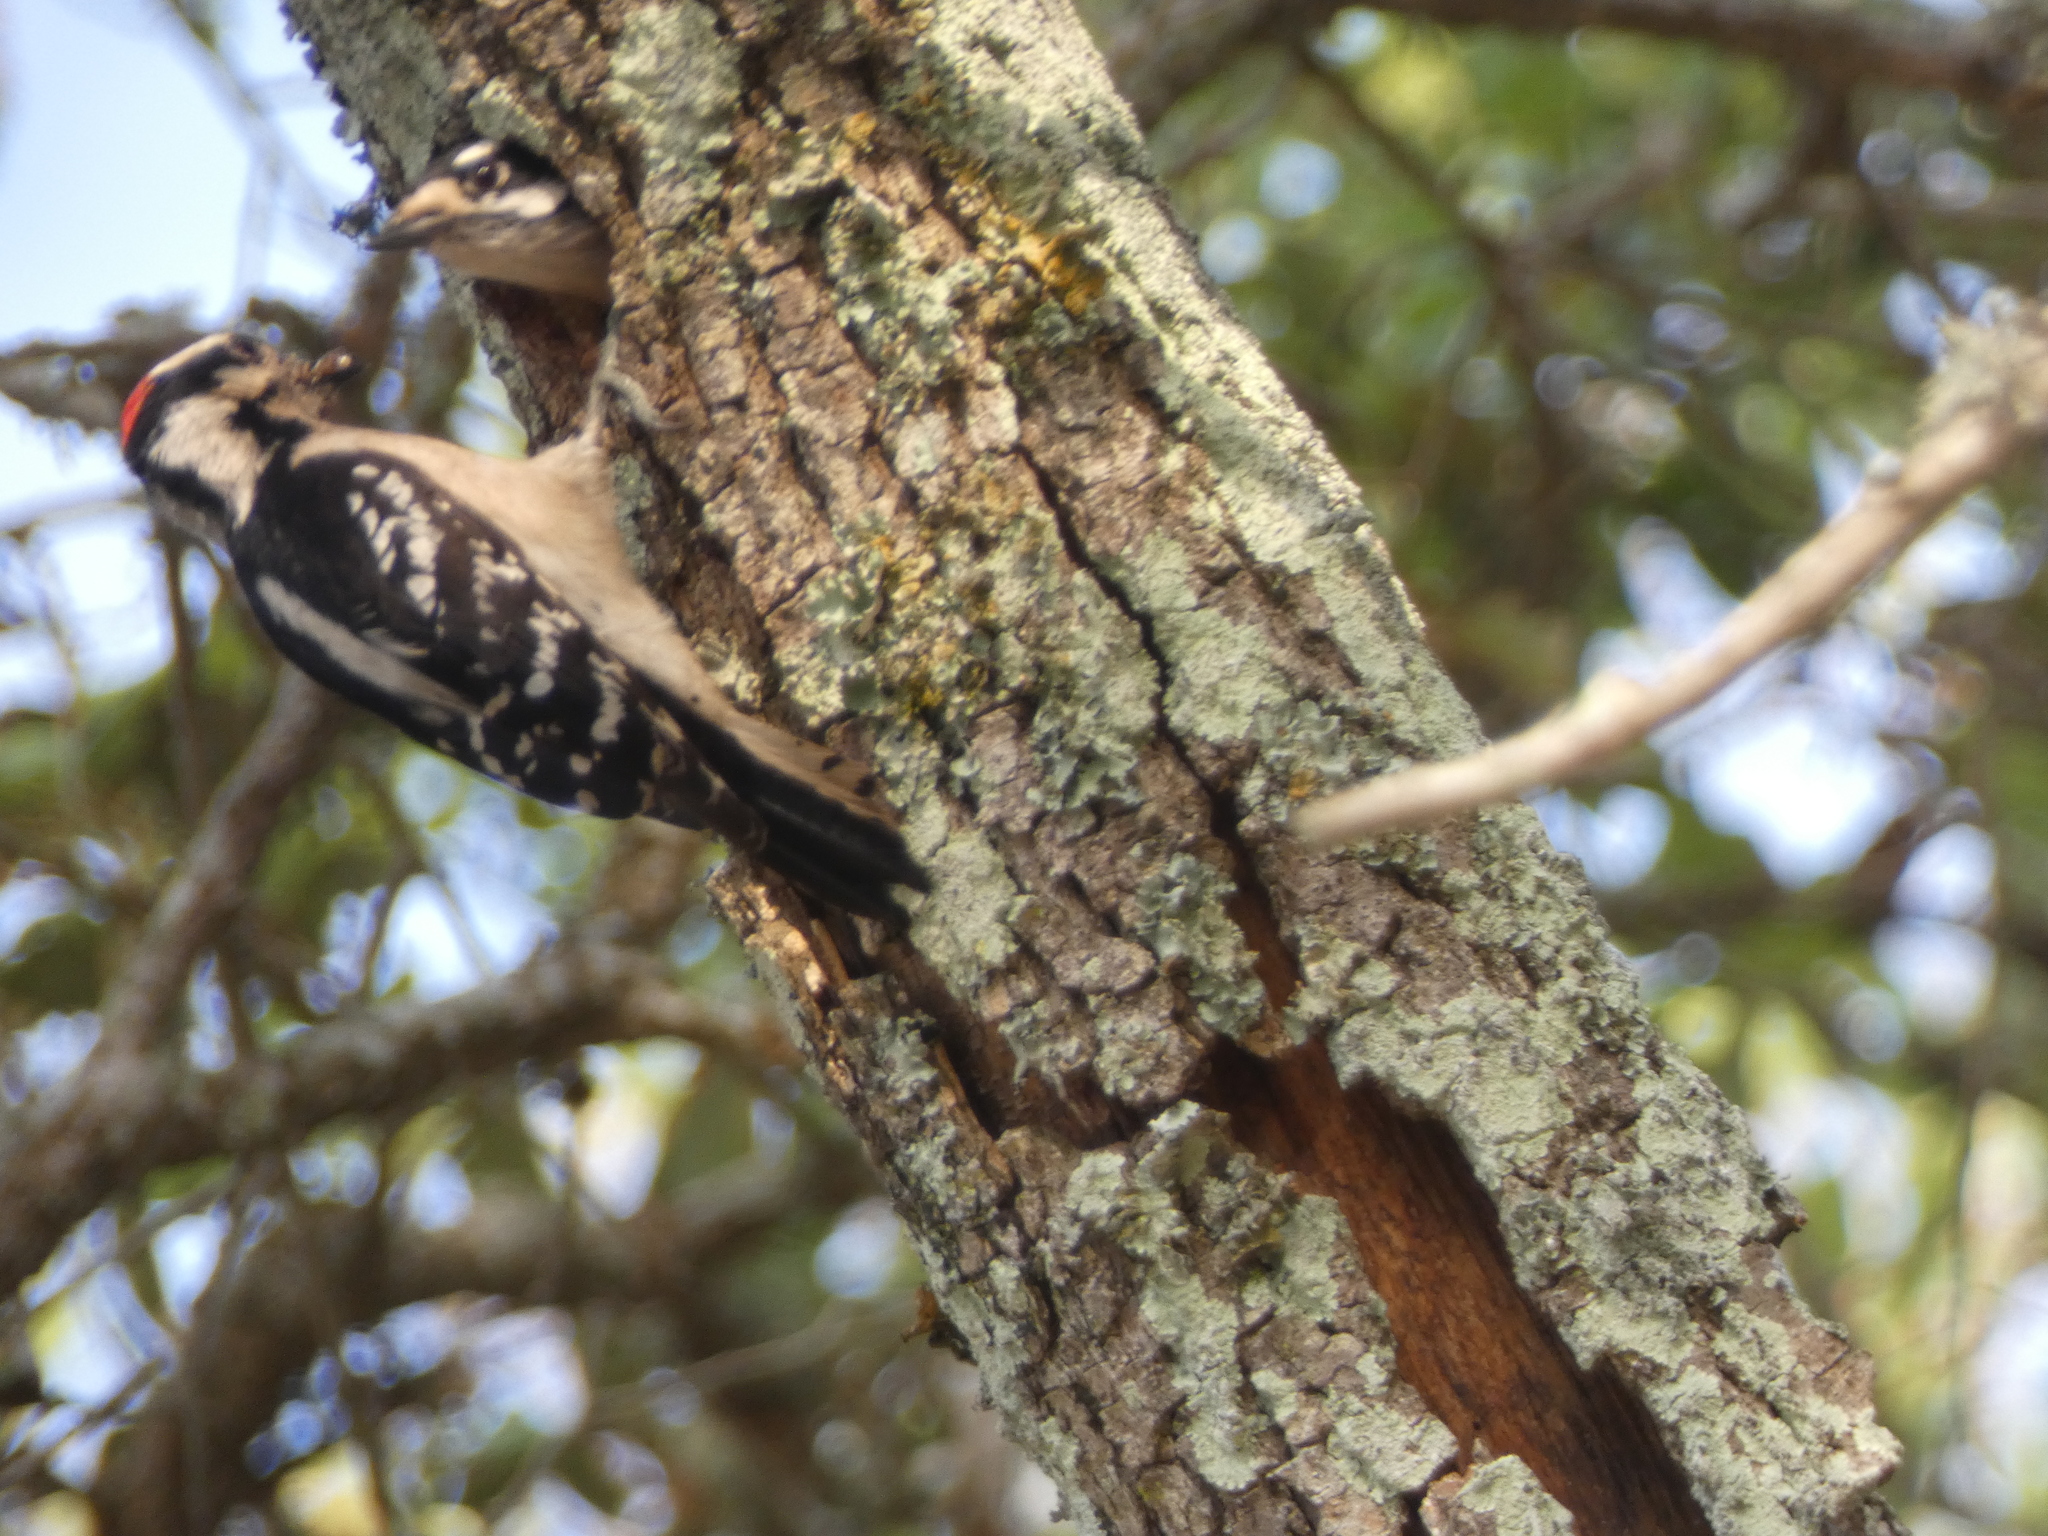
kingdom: Animalia
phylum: Chordata
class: Aves
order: Piciformes
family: Picidae
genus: Dryobates
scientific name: Dryobates pubescens
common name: Downy woodpecker
